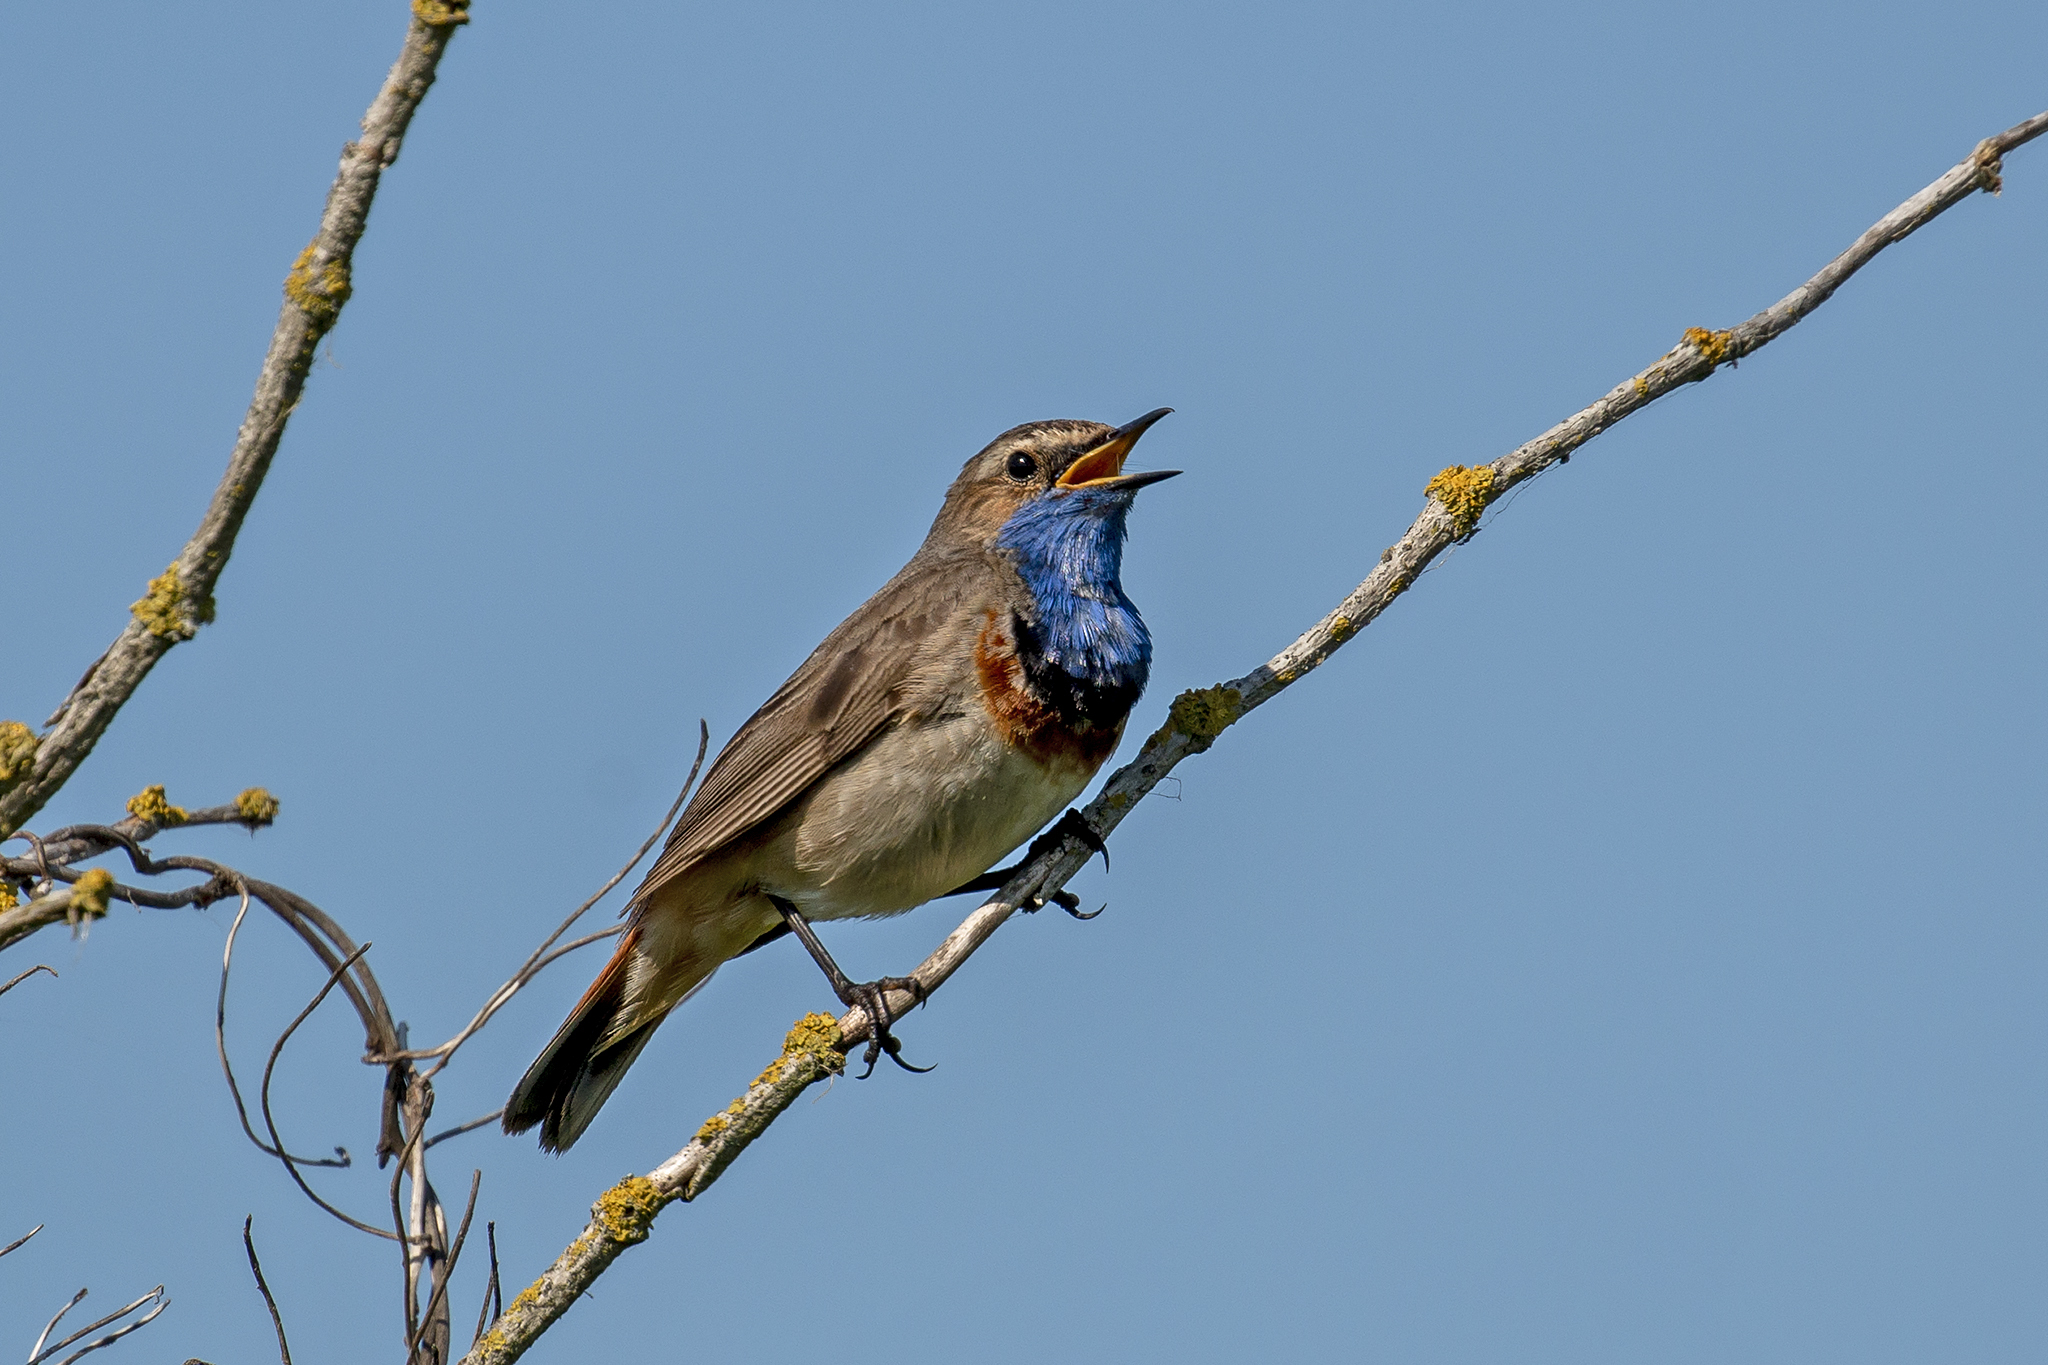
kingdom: Animalia
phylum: Chordata
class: Aves
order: Passeriformes
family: Muscicapidae
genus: Luscinia
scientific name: Luscinia svecica
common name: Bluethroat
